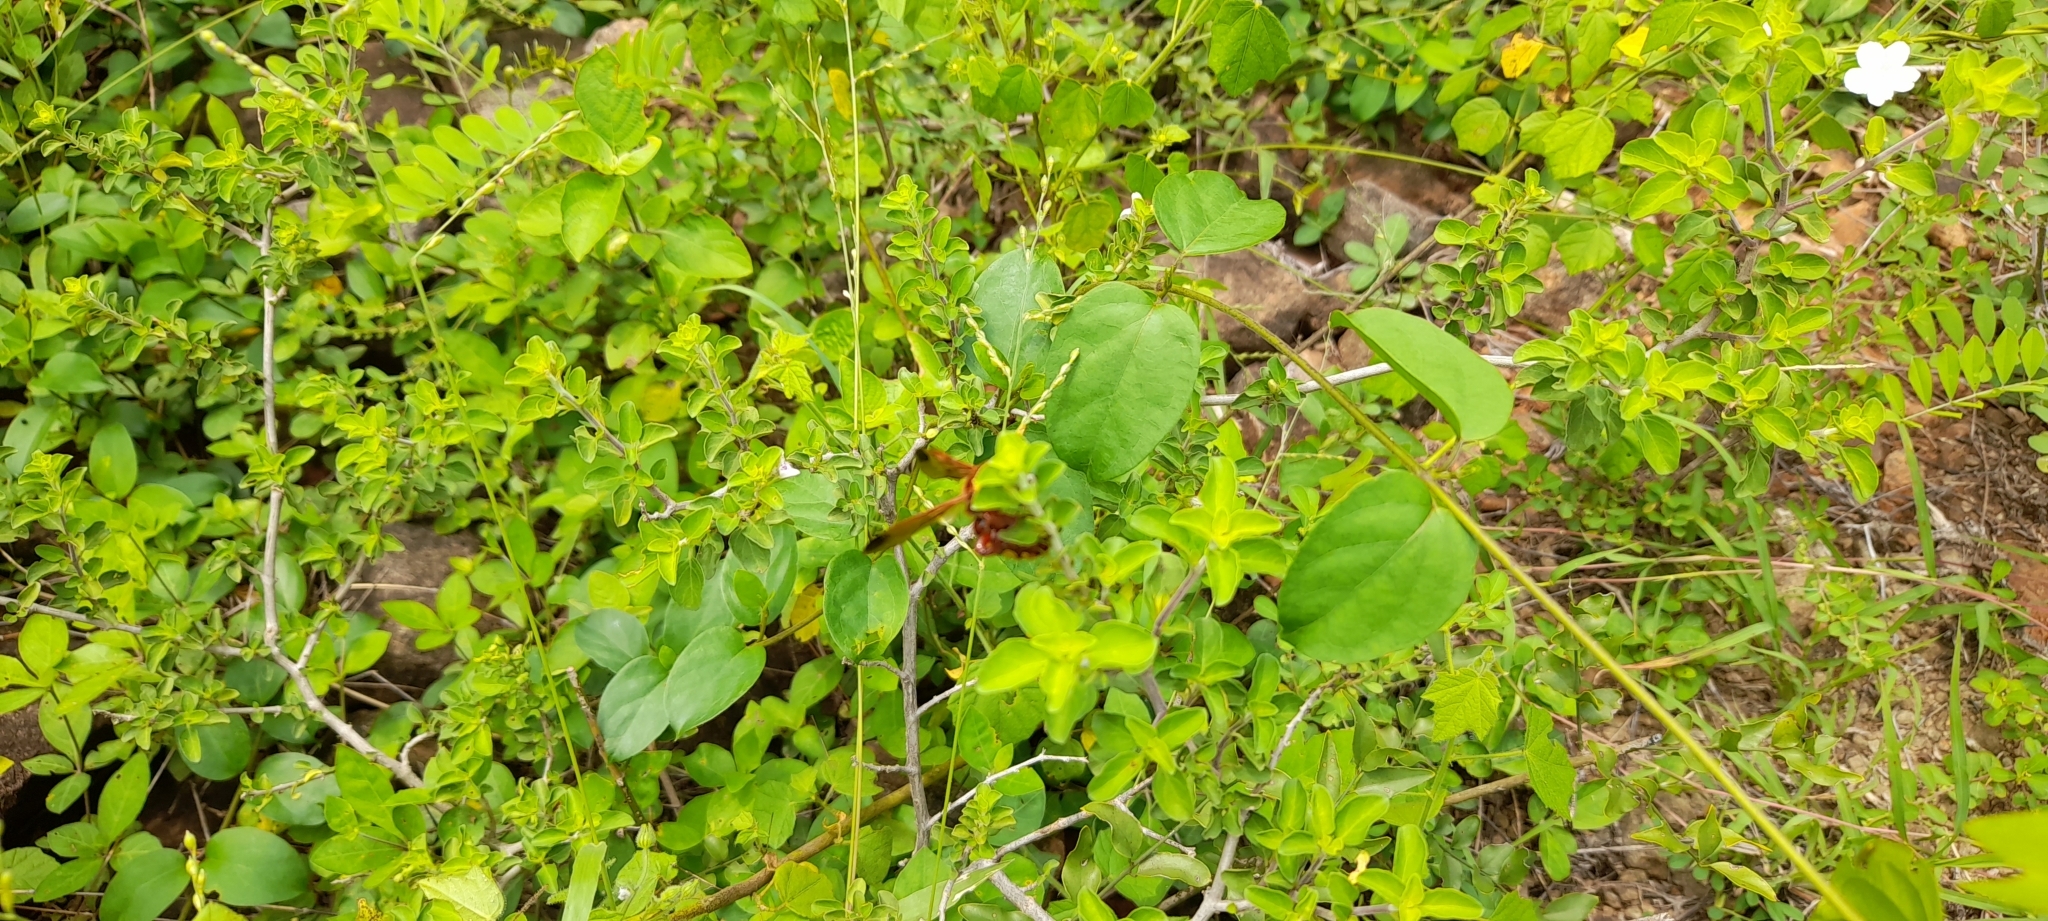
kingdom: Animalia
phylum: Arthropoda
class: Insecta
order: Hymenoptera
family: Scoliidae
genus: Carinoscolia
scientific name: Carinoscolia Scolia picteti
